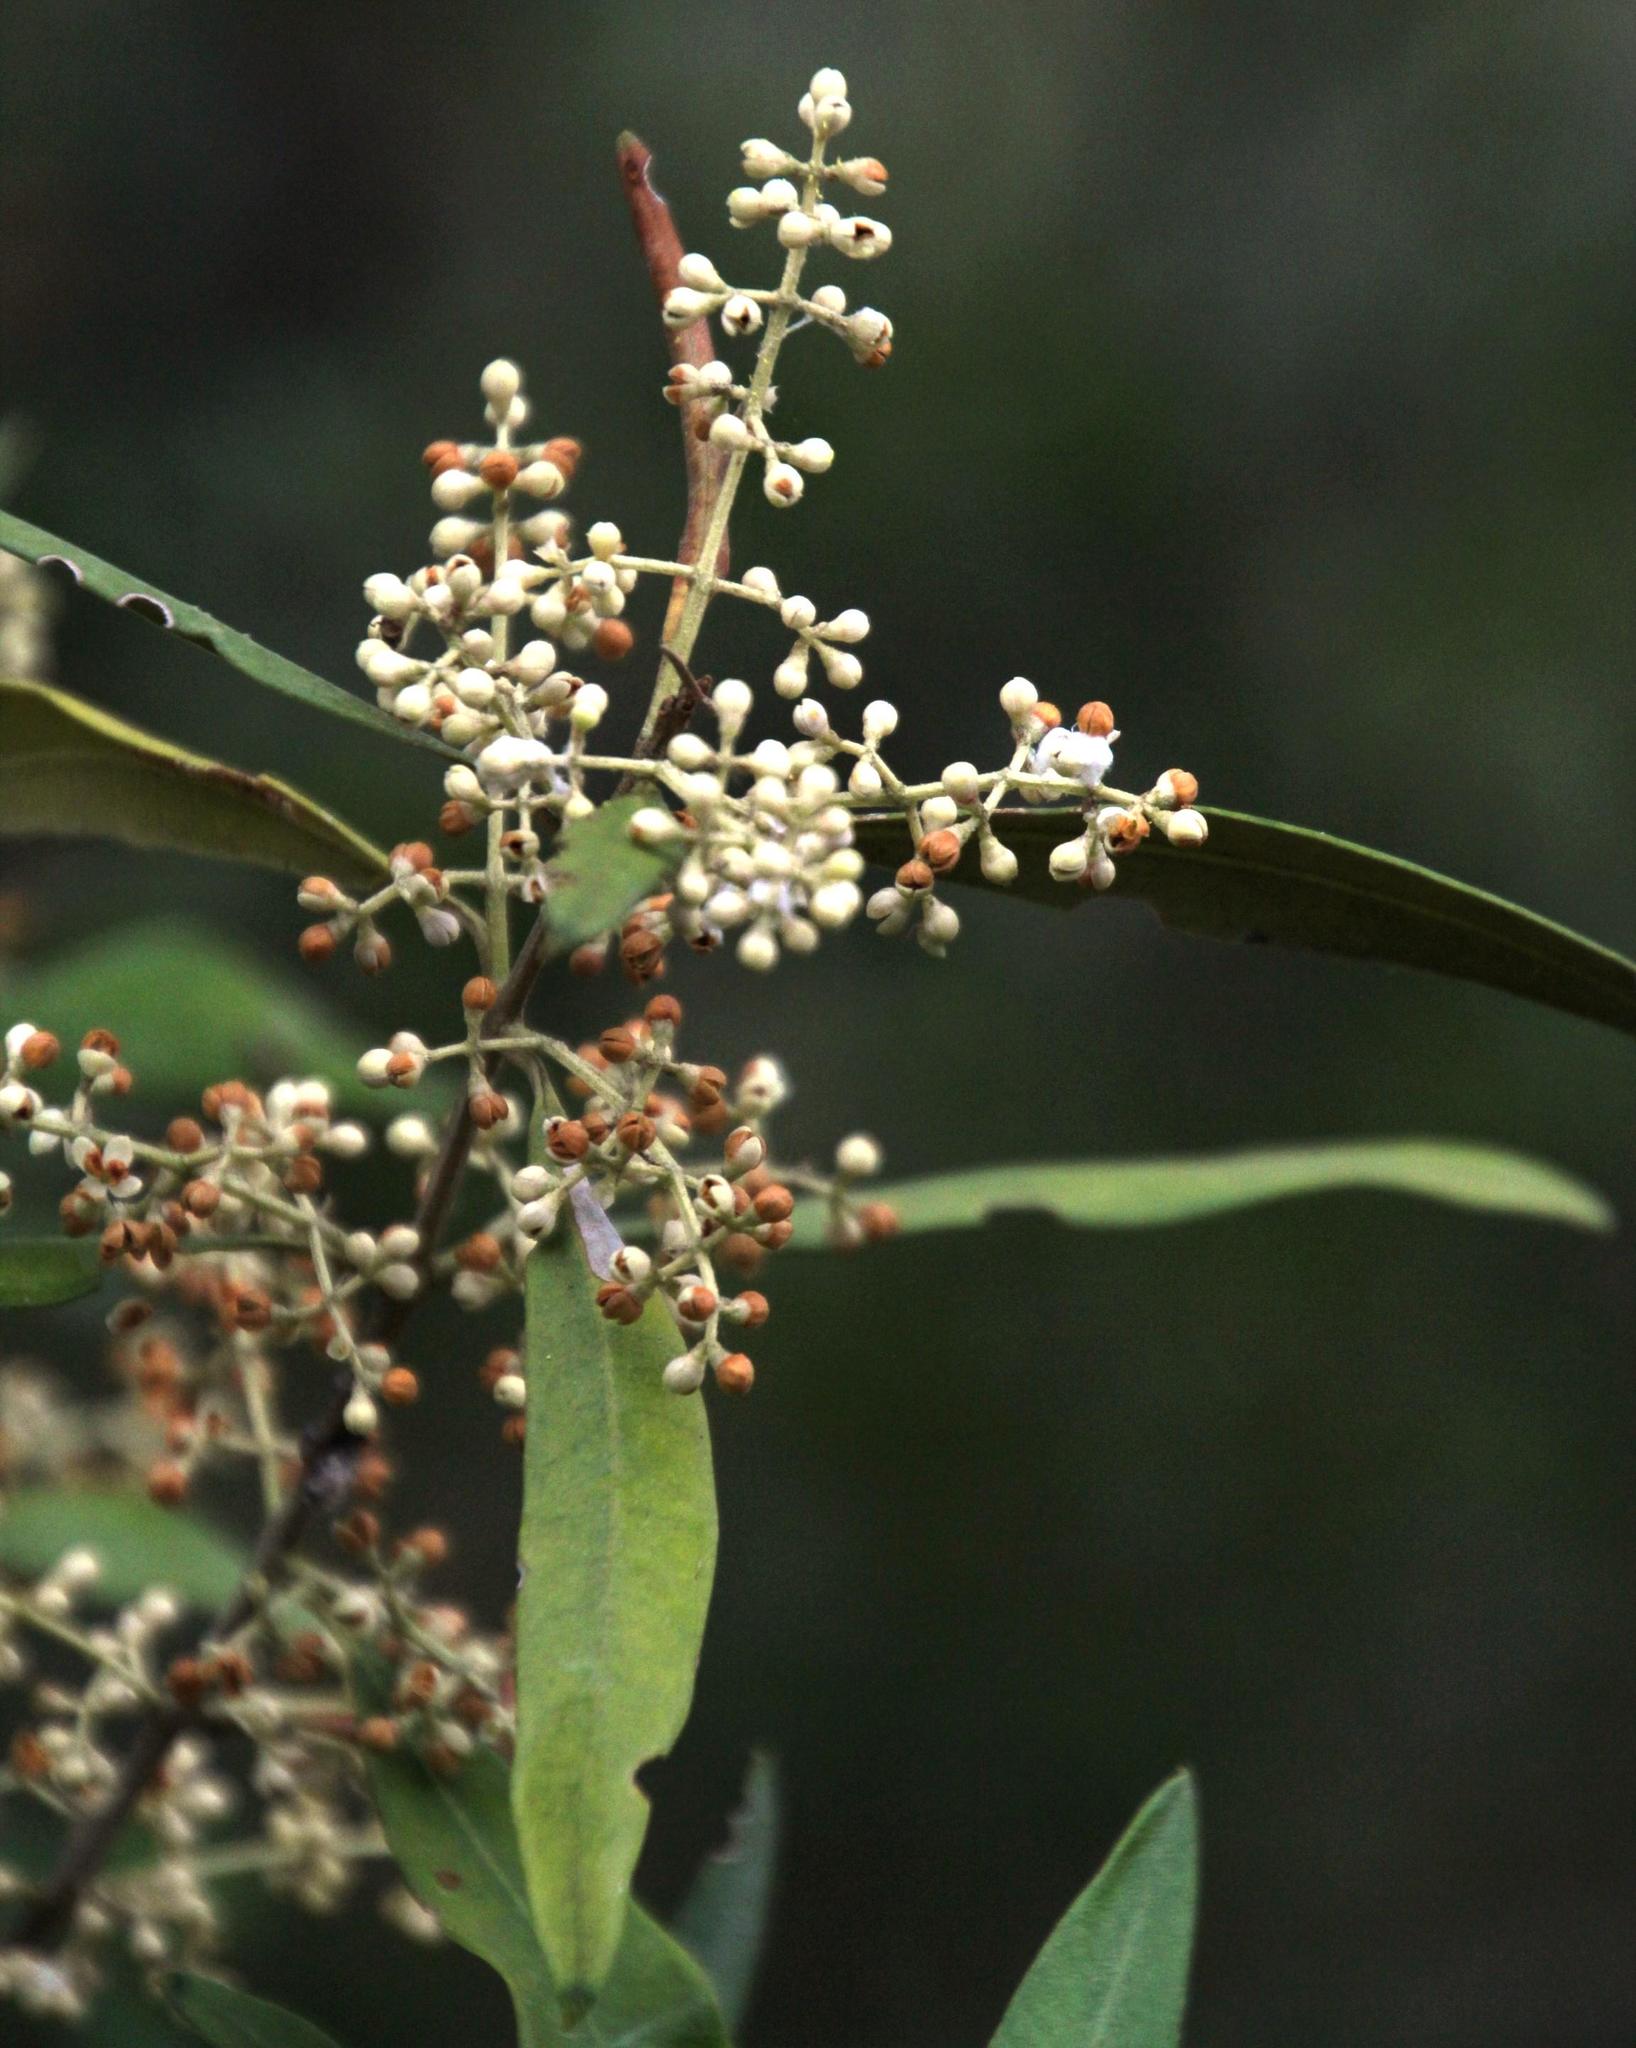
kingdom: Plantae
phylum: Tracheophyta
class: Magnoliopsida
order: Lamiales
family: Oleaceae
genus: Olea
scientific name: Olea europaea
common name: Olive
